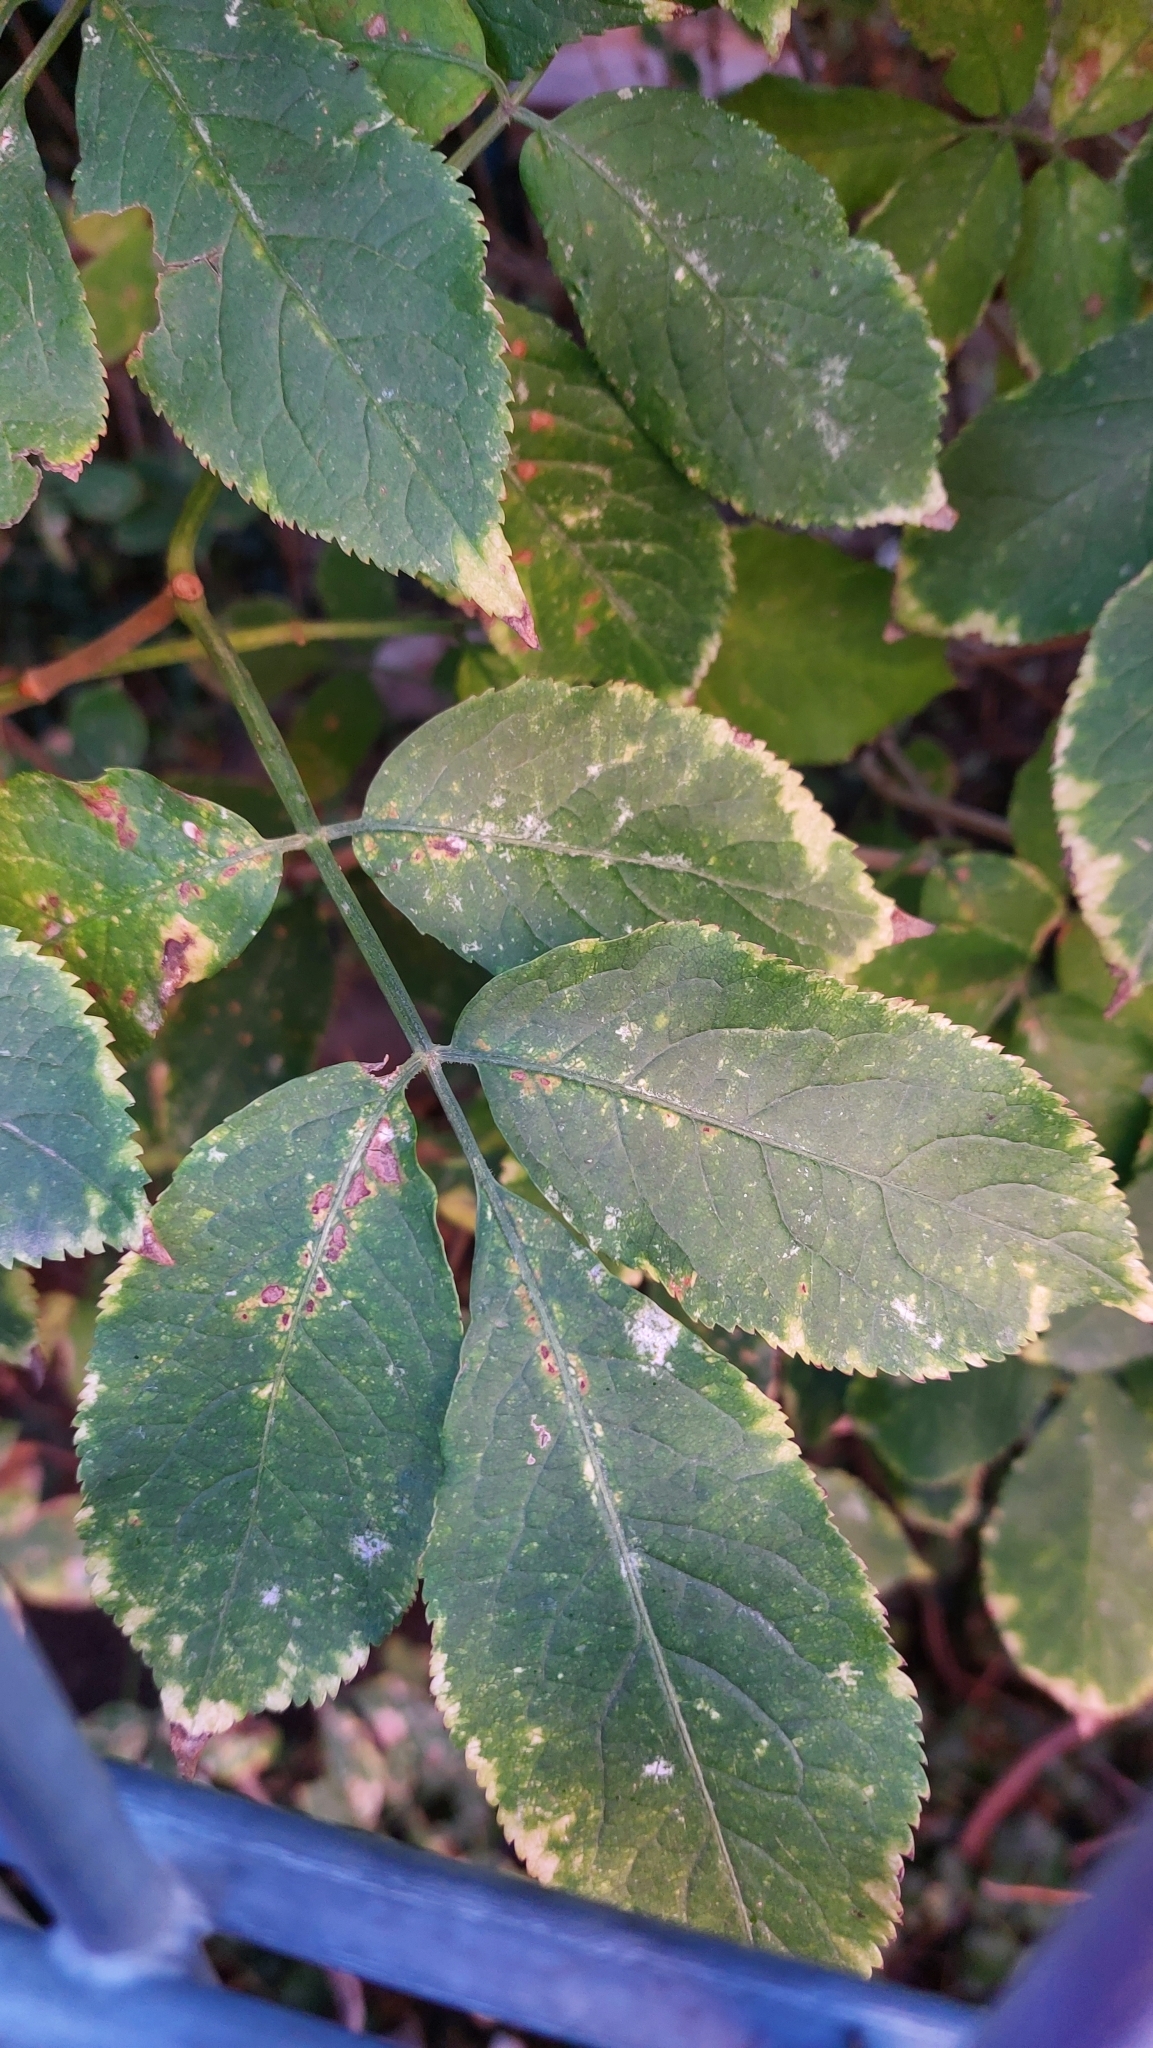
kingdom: Plantae
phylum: Tracheophyta
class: Magnoliopsida
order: Dipsacales
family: Viburnaceae
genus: Sambucus
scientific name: Sambucus nigra
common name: Elder
